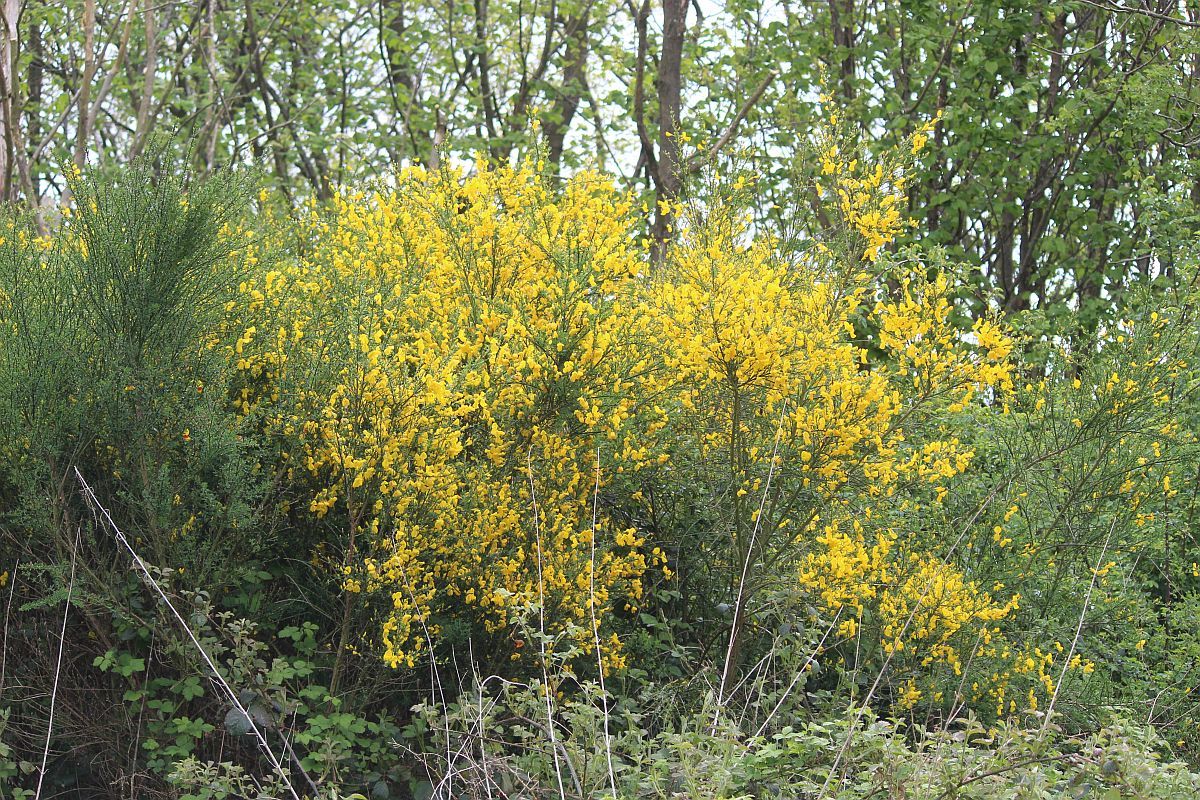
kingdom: Plantae
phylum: Tracheophyta
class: Magnoliopsida
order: Fabales
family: Fabaceae
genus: Cytisus
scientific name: Cytisus scoparius
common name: Scotch broom
